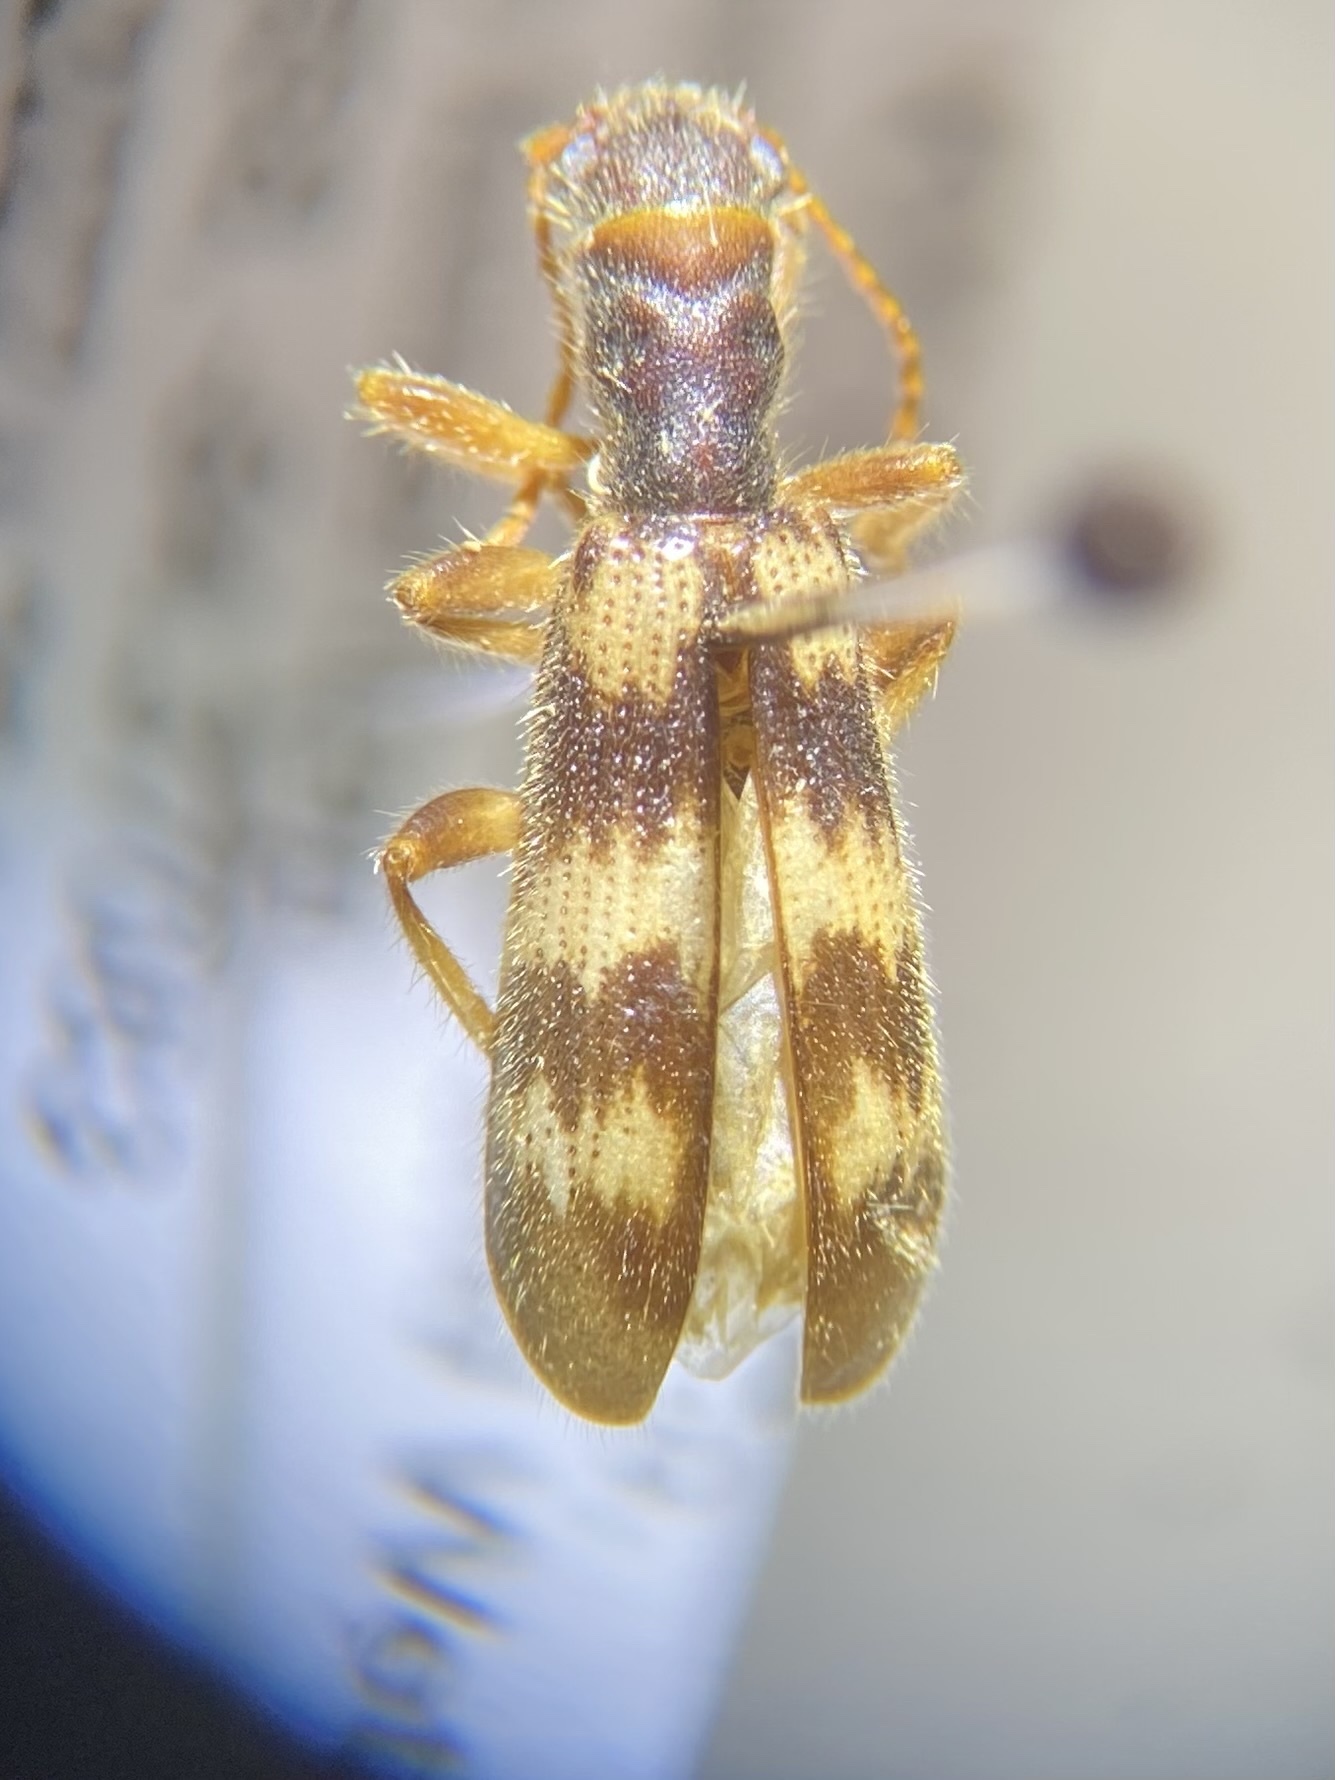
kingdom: Animalia
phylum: Arthropoda
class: Insecta
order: Coleoptera
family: Cleridae
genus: Cymatodera
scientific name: Cymatodera undulata
